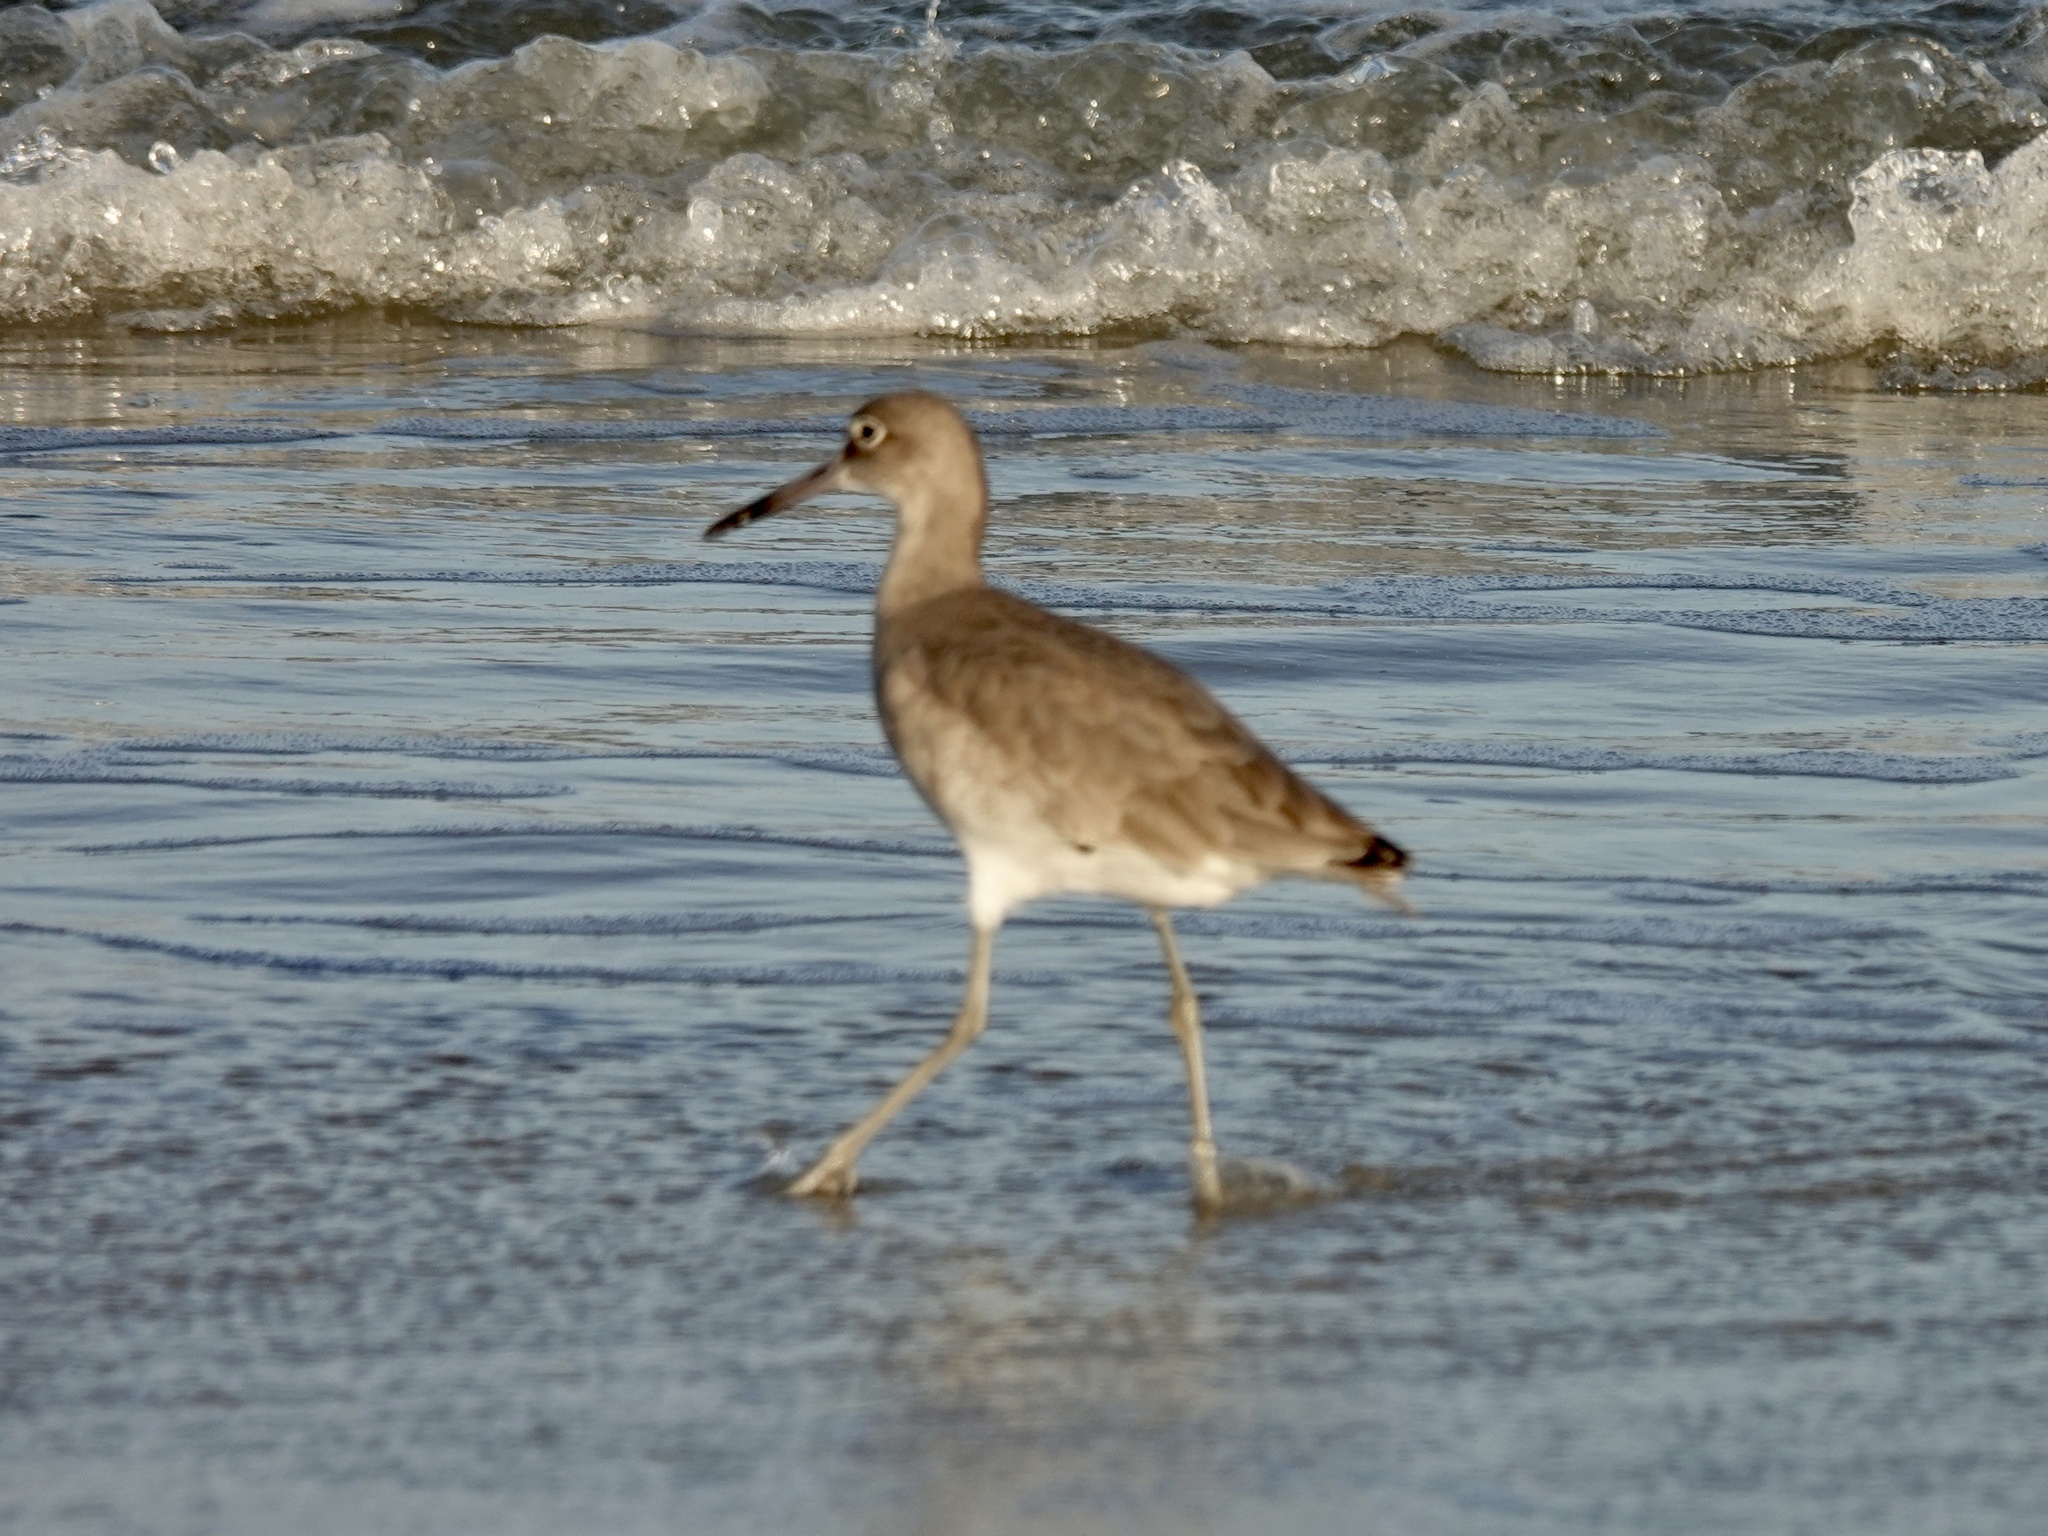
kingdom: Animalia
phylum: Chordata
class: Aves
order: Charadriiformes
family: Scolopacidae
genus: Tringa
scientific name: Tringa semipalmata
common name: Willet
